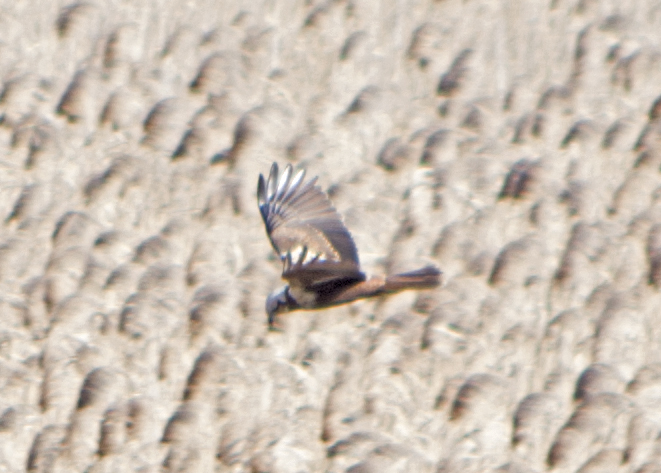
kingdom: Animalia
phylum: Chordata
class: Aves
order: Accipitriformes
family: Accipitridae
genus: Circus
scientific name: Circus aeruginosus
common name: Western marsh harrier
